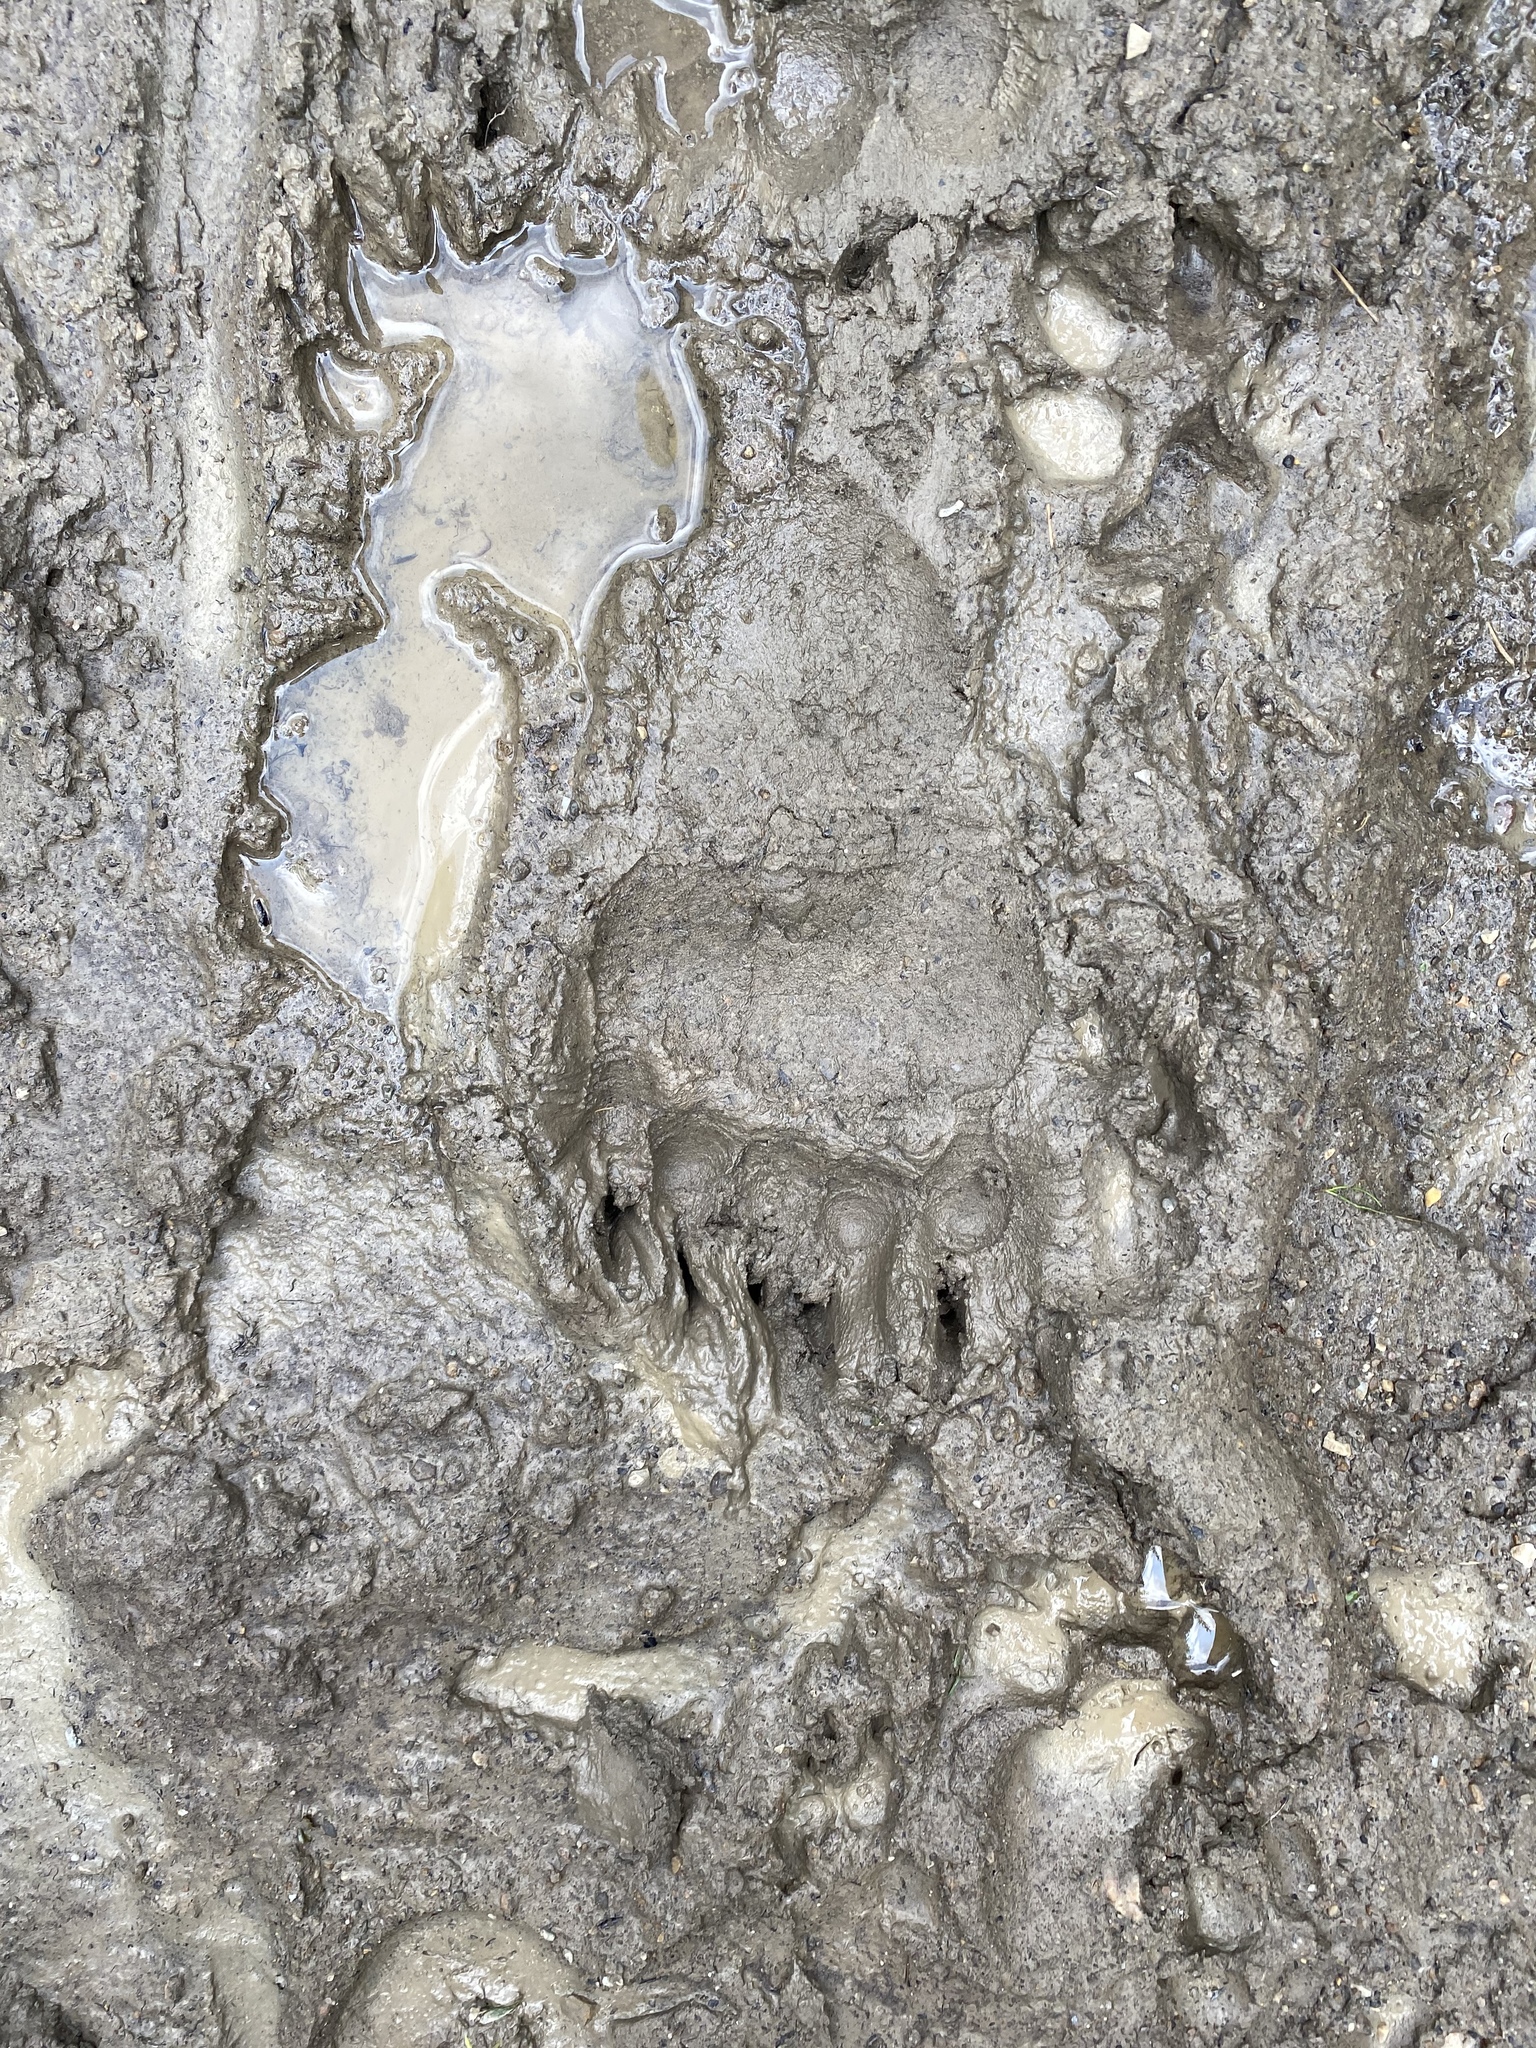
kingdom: Animalia
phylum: Chordata
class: Mammalia
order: Carnivora
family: Ursidae
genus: Ursus
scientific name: Ursus arctos
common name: Brown bear
